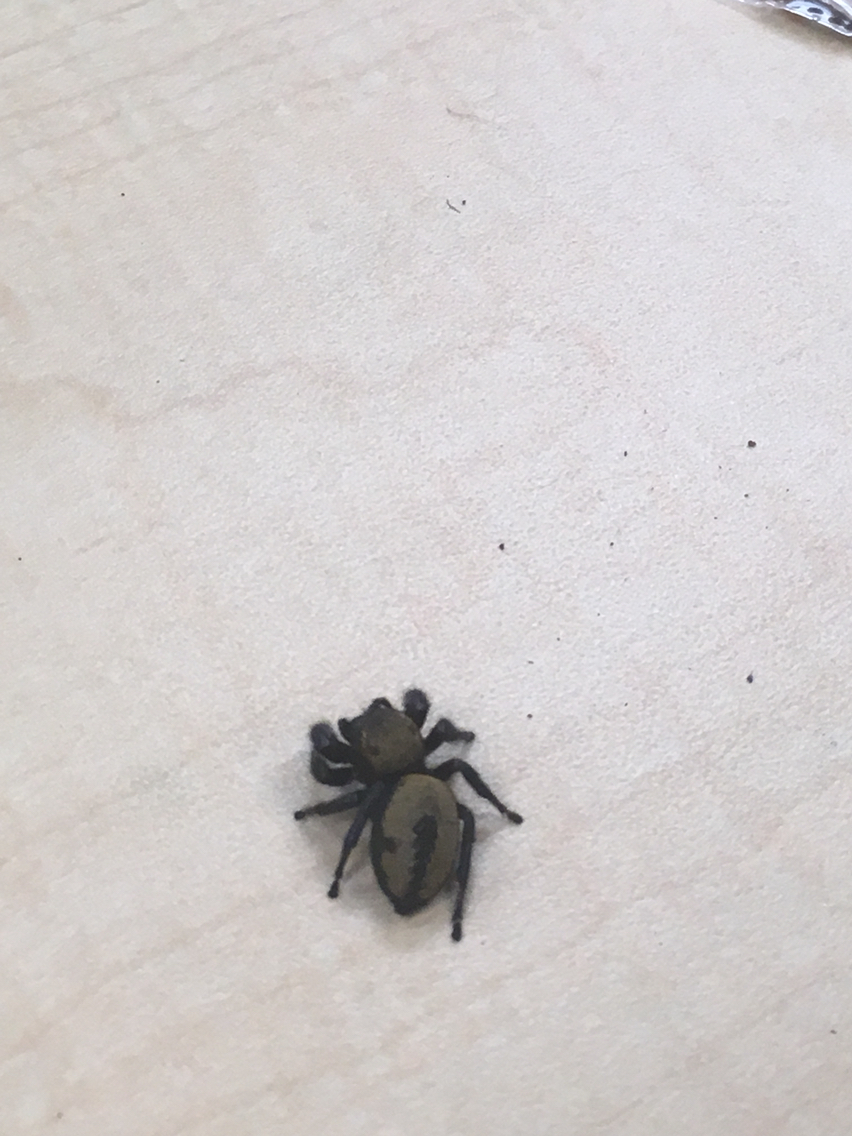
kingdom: Animalia
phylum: Arthropoda
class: Arachnida
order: Araneae
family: Salticidae
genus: Phidippus
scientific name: Phidippus apacheanus
